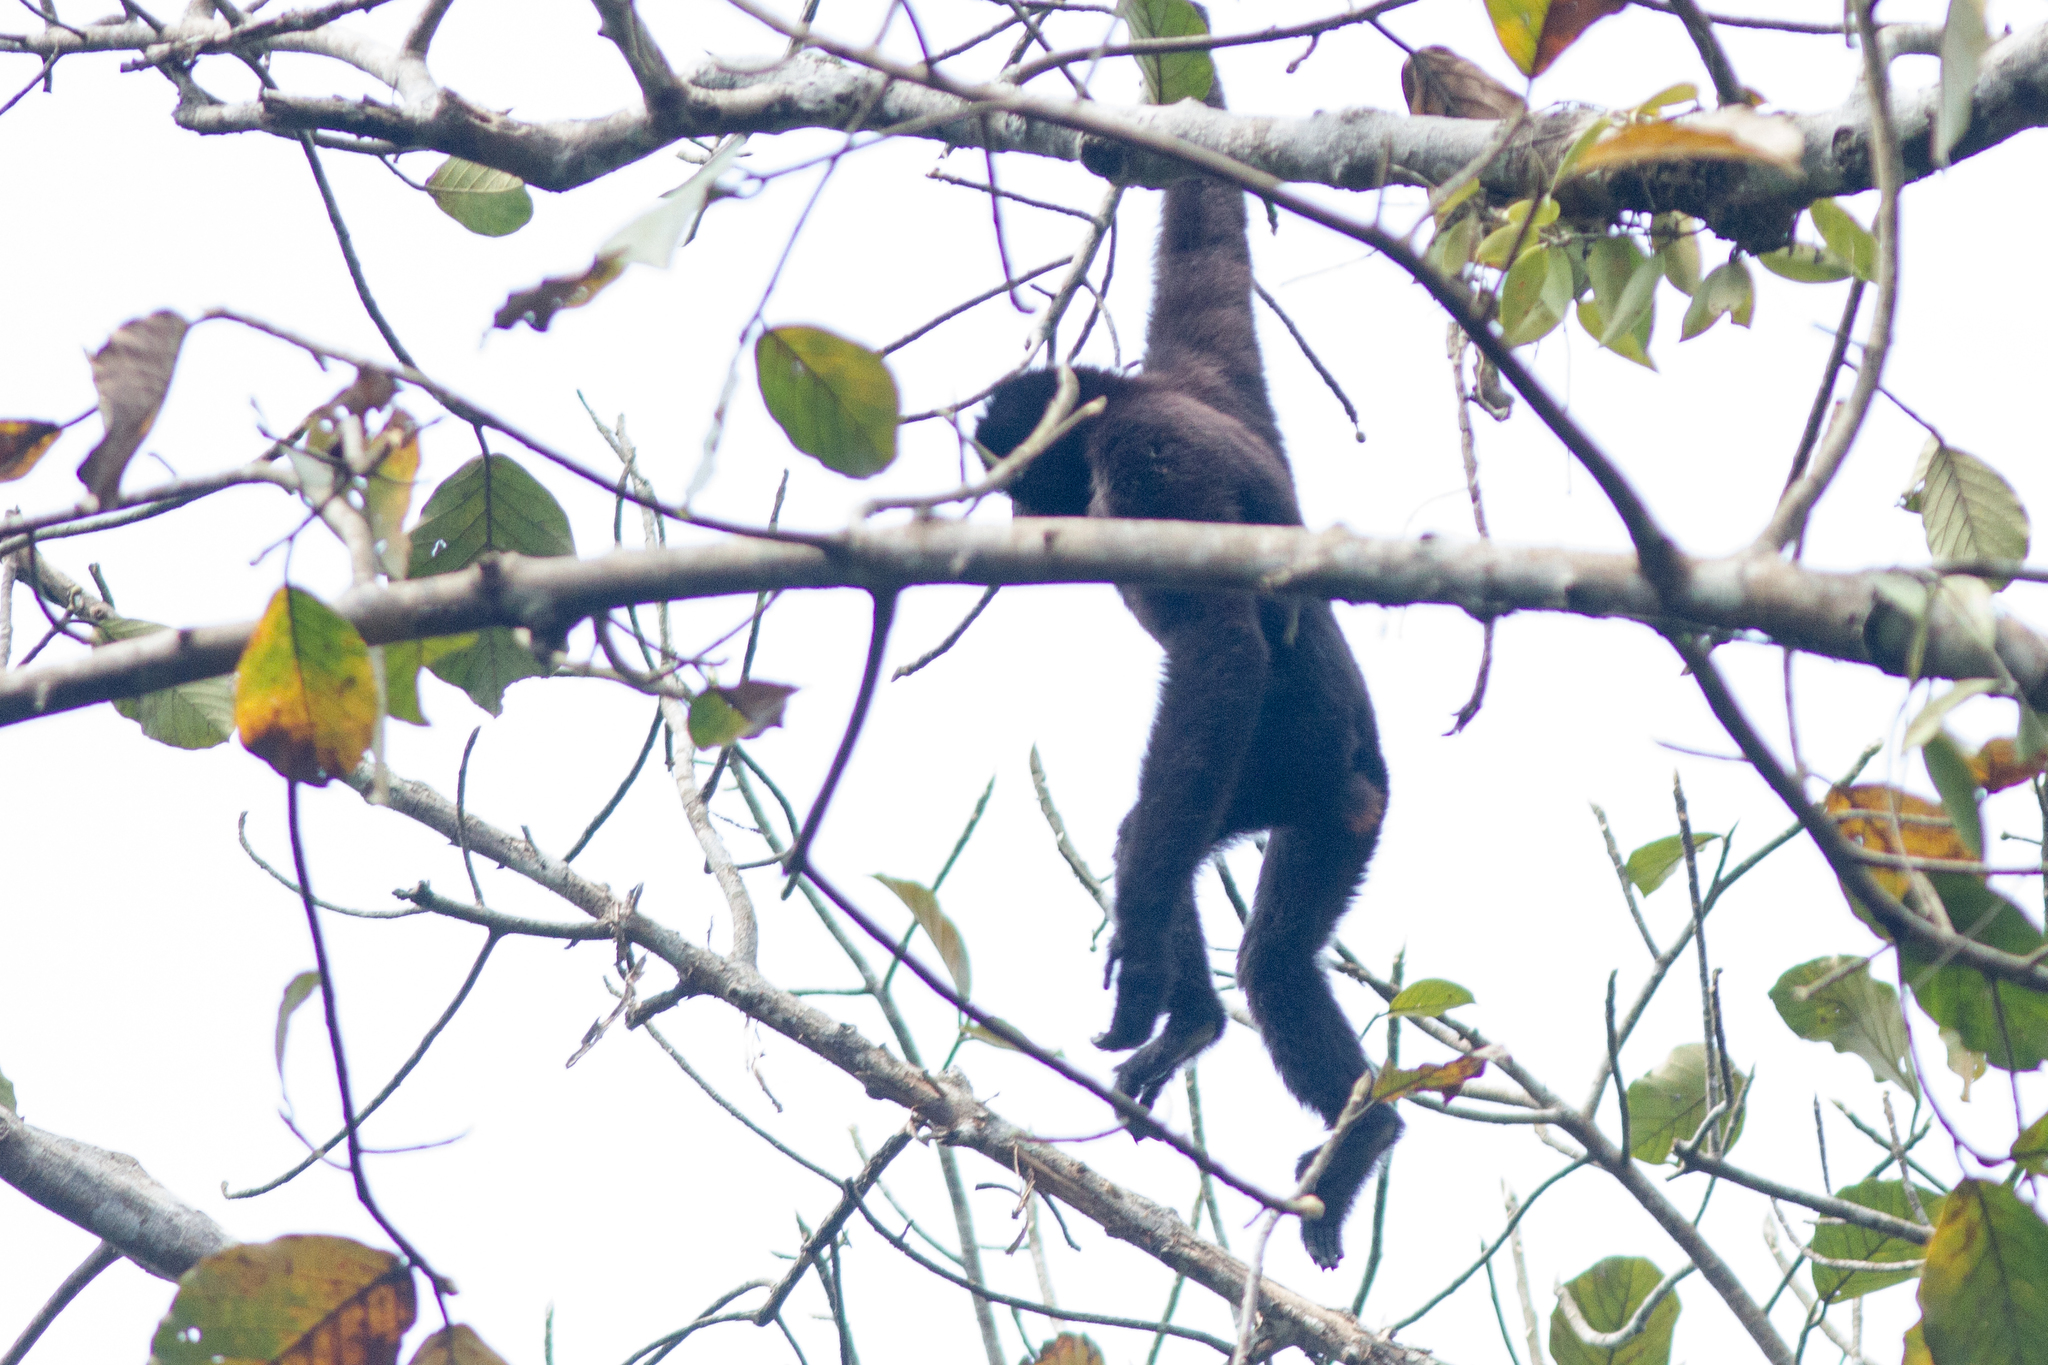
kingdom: Animalia
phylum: Chordata
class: Mammalia
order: Primates
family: Hylobatidae
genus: Hoolock
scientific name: Hoolock hoolock
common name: Western hoolock gibbon
